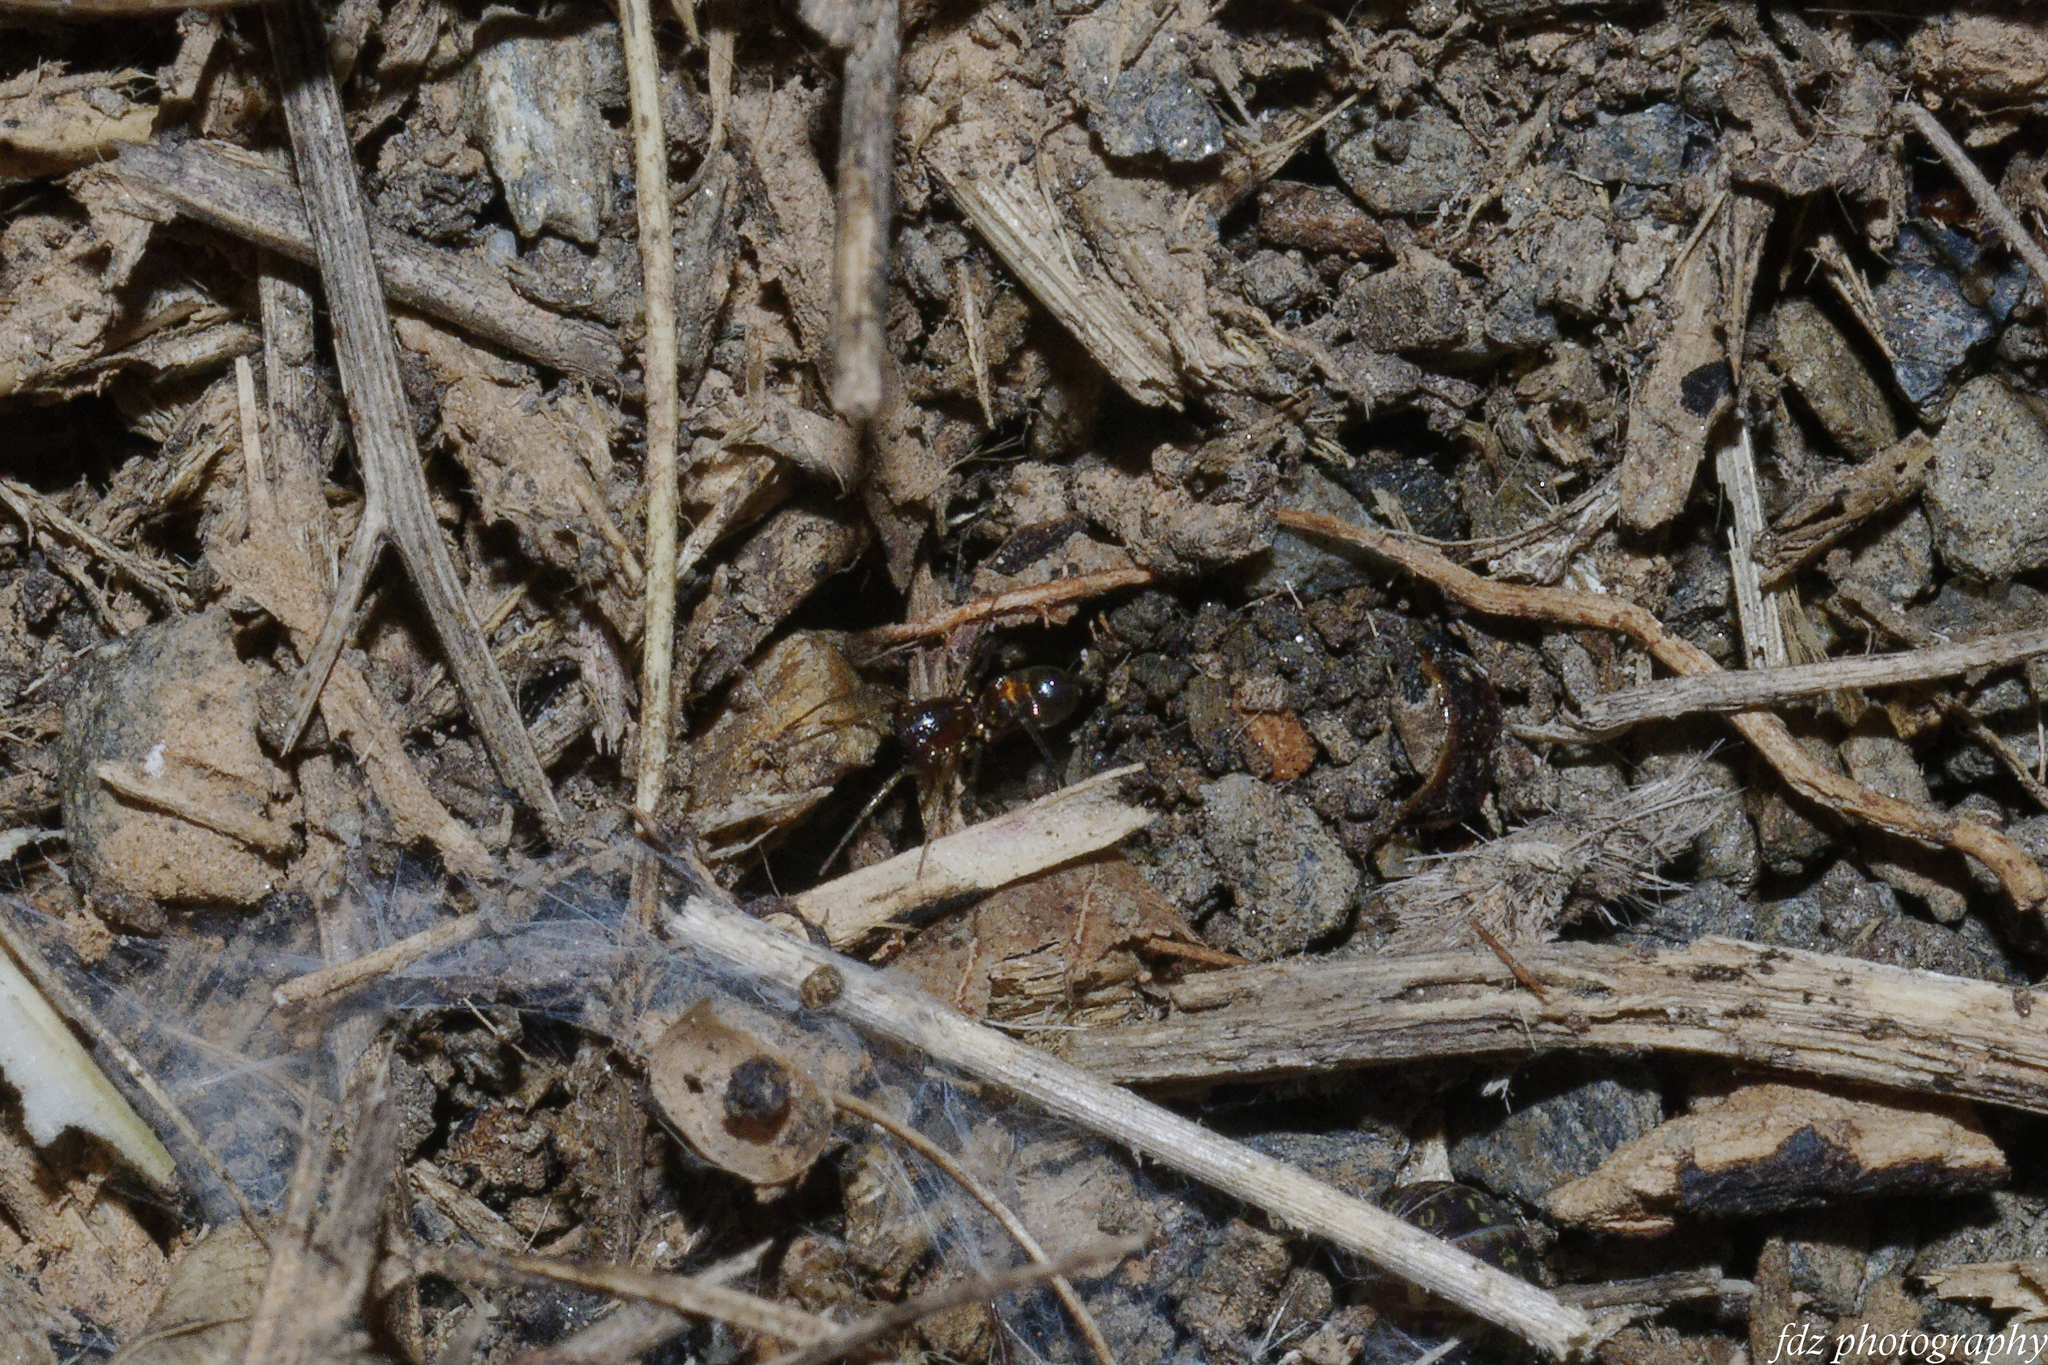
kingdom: Animalia
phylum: Arthropoda
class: Arachnida
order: Araneae
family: Gnaphosidae
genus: Micaria
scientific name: Micaria dives
